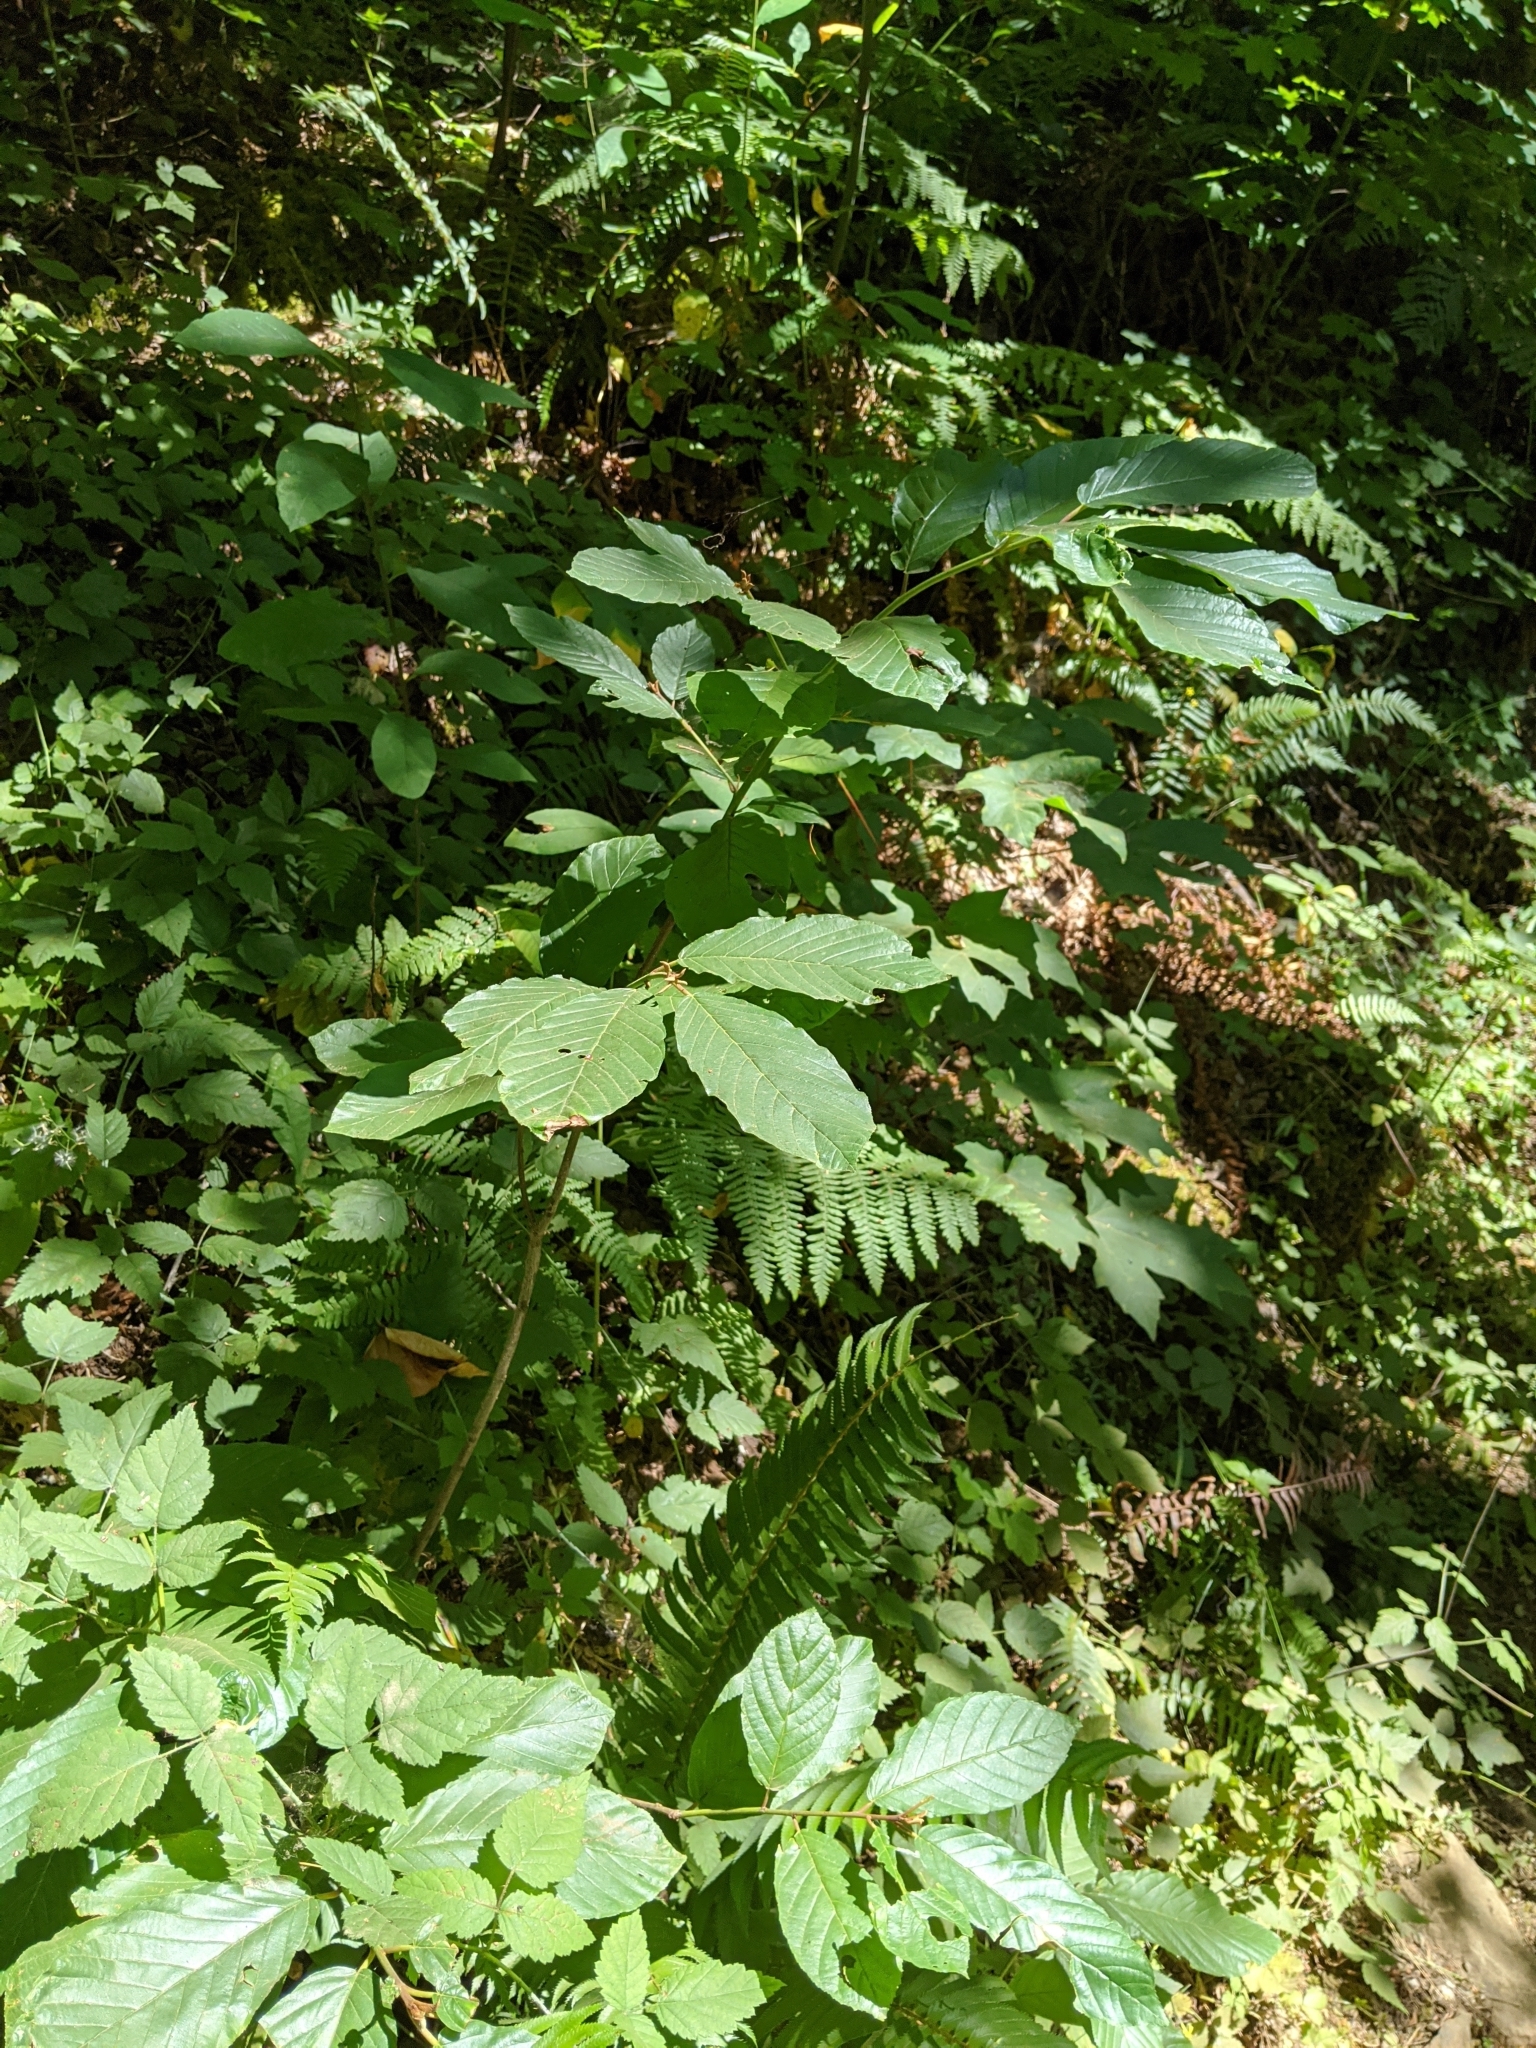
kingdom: Plantae
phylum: Tracheophyta
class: Magnoliopsida
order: Rosales
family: Rhamnaceae
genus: Frangula
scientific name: Frangula purshiana
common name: Cascara buckthorn
